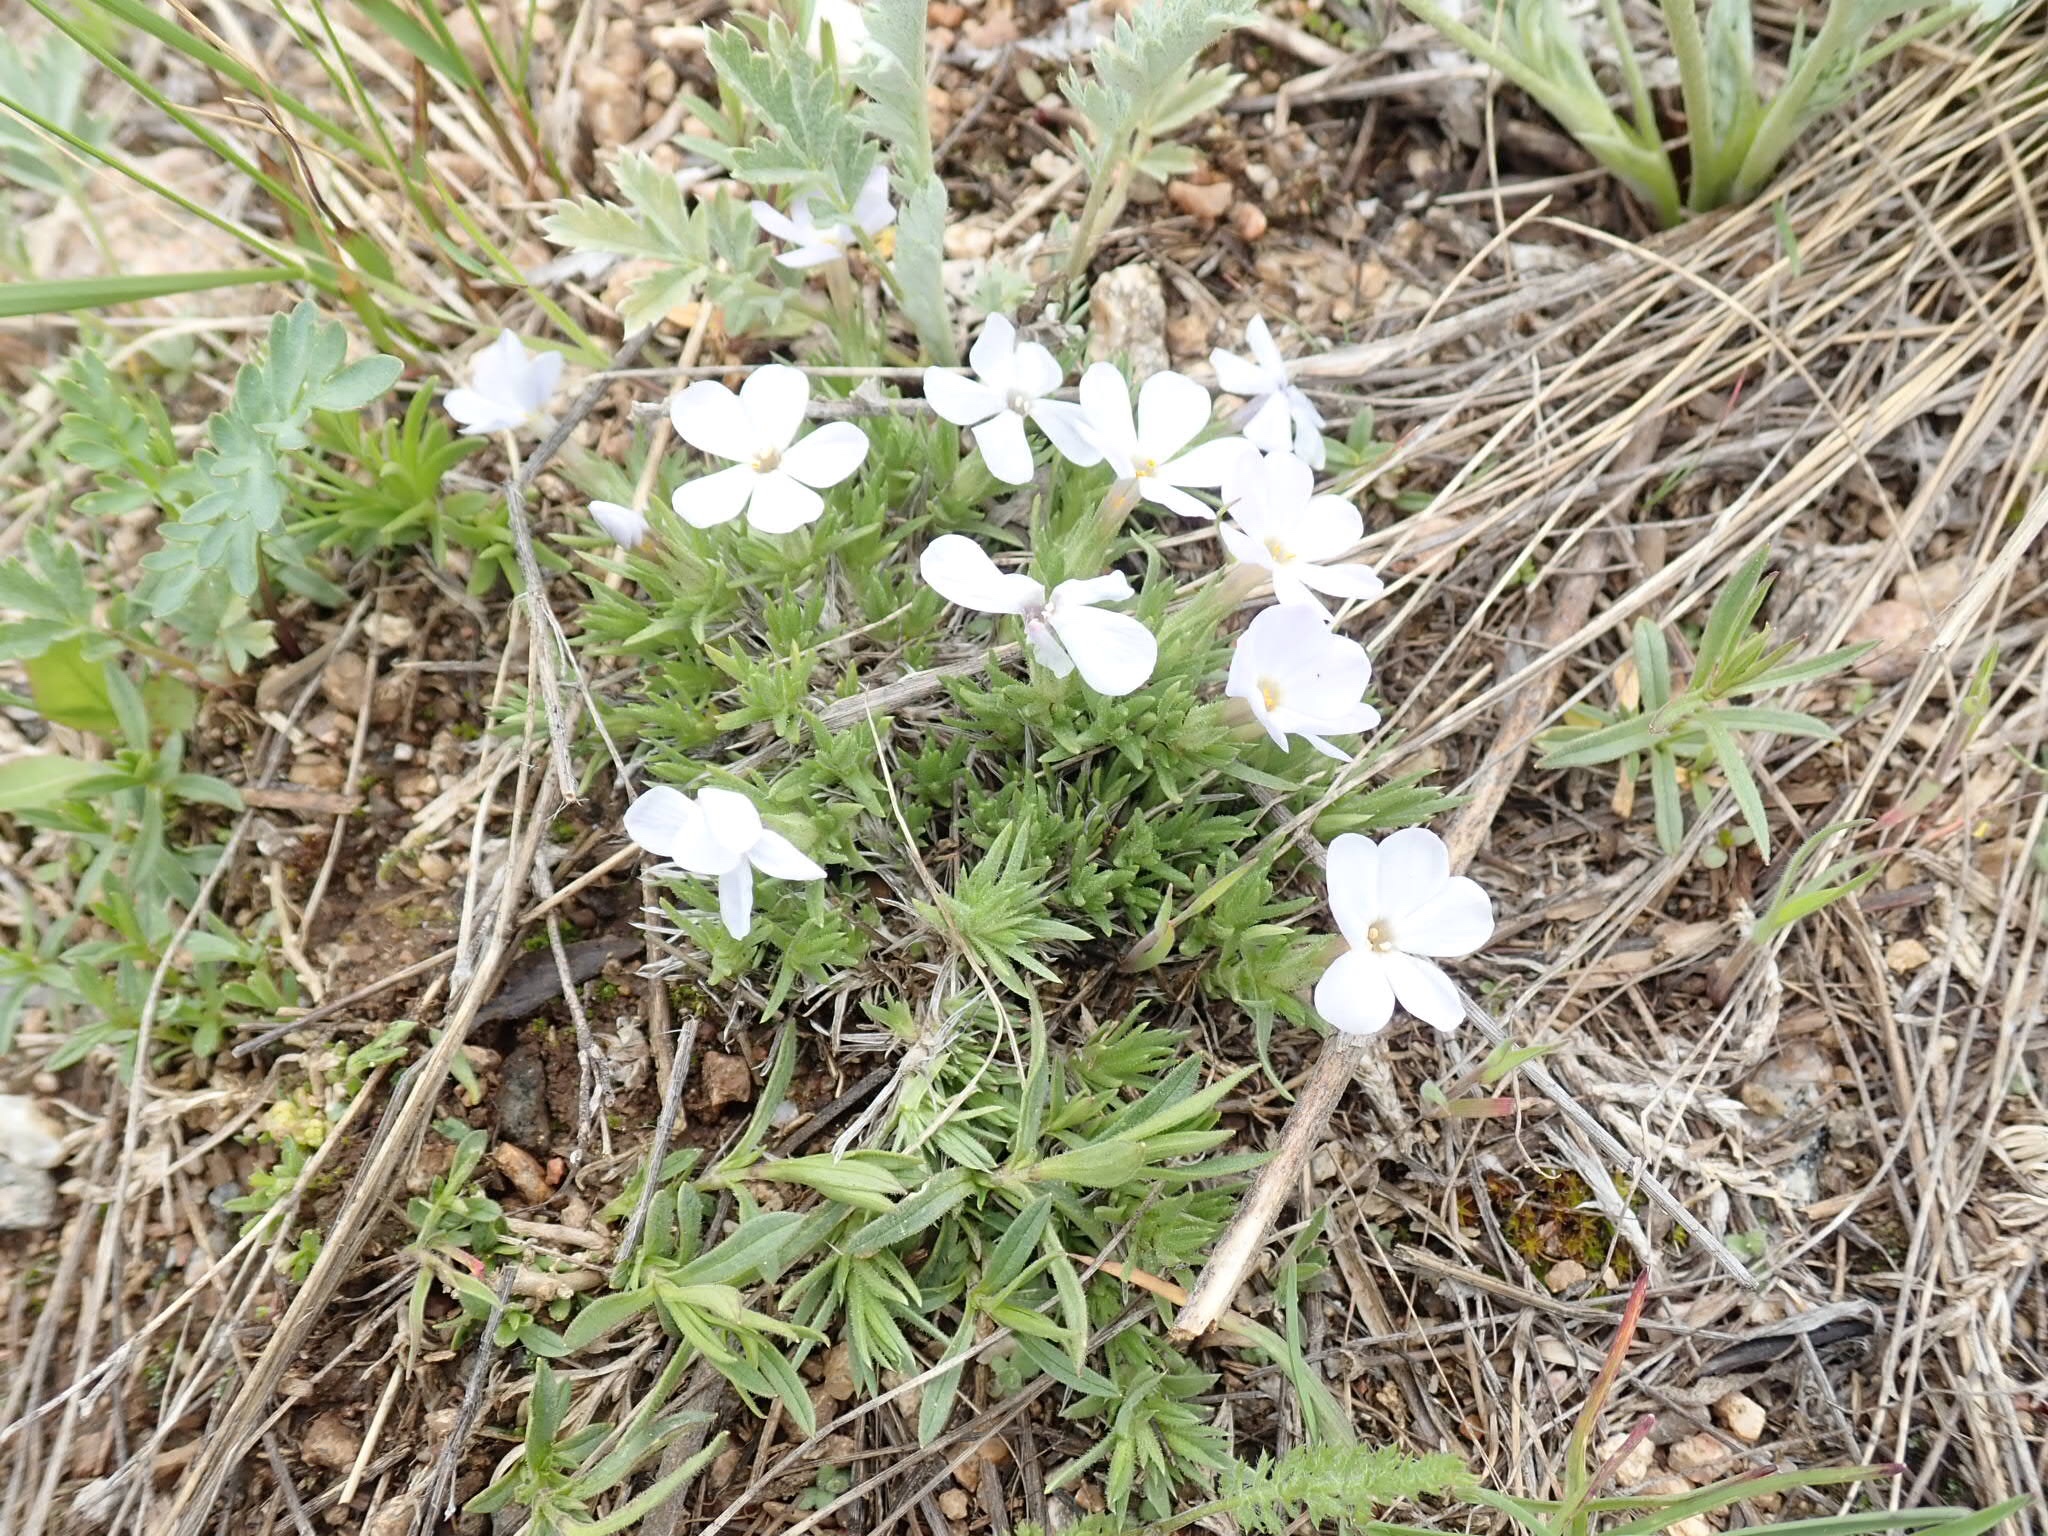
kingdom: Plantae
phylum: Tracheophyta
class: Magnoliopsida
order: Ericales
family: Polemoniaceae
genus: Phlox
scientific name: Phlox multiflora
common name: Rocky mountain phlox
